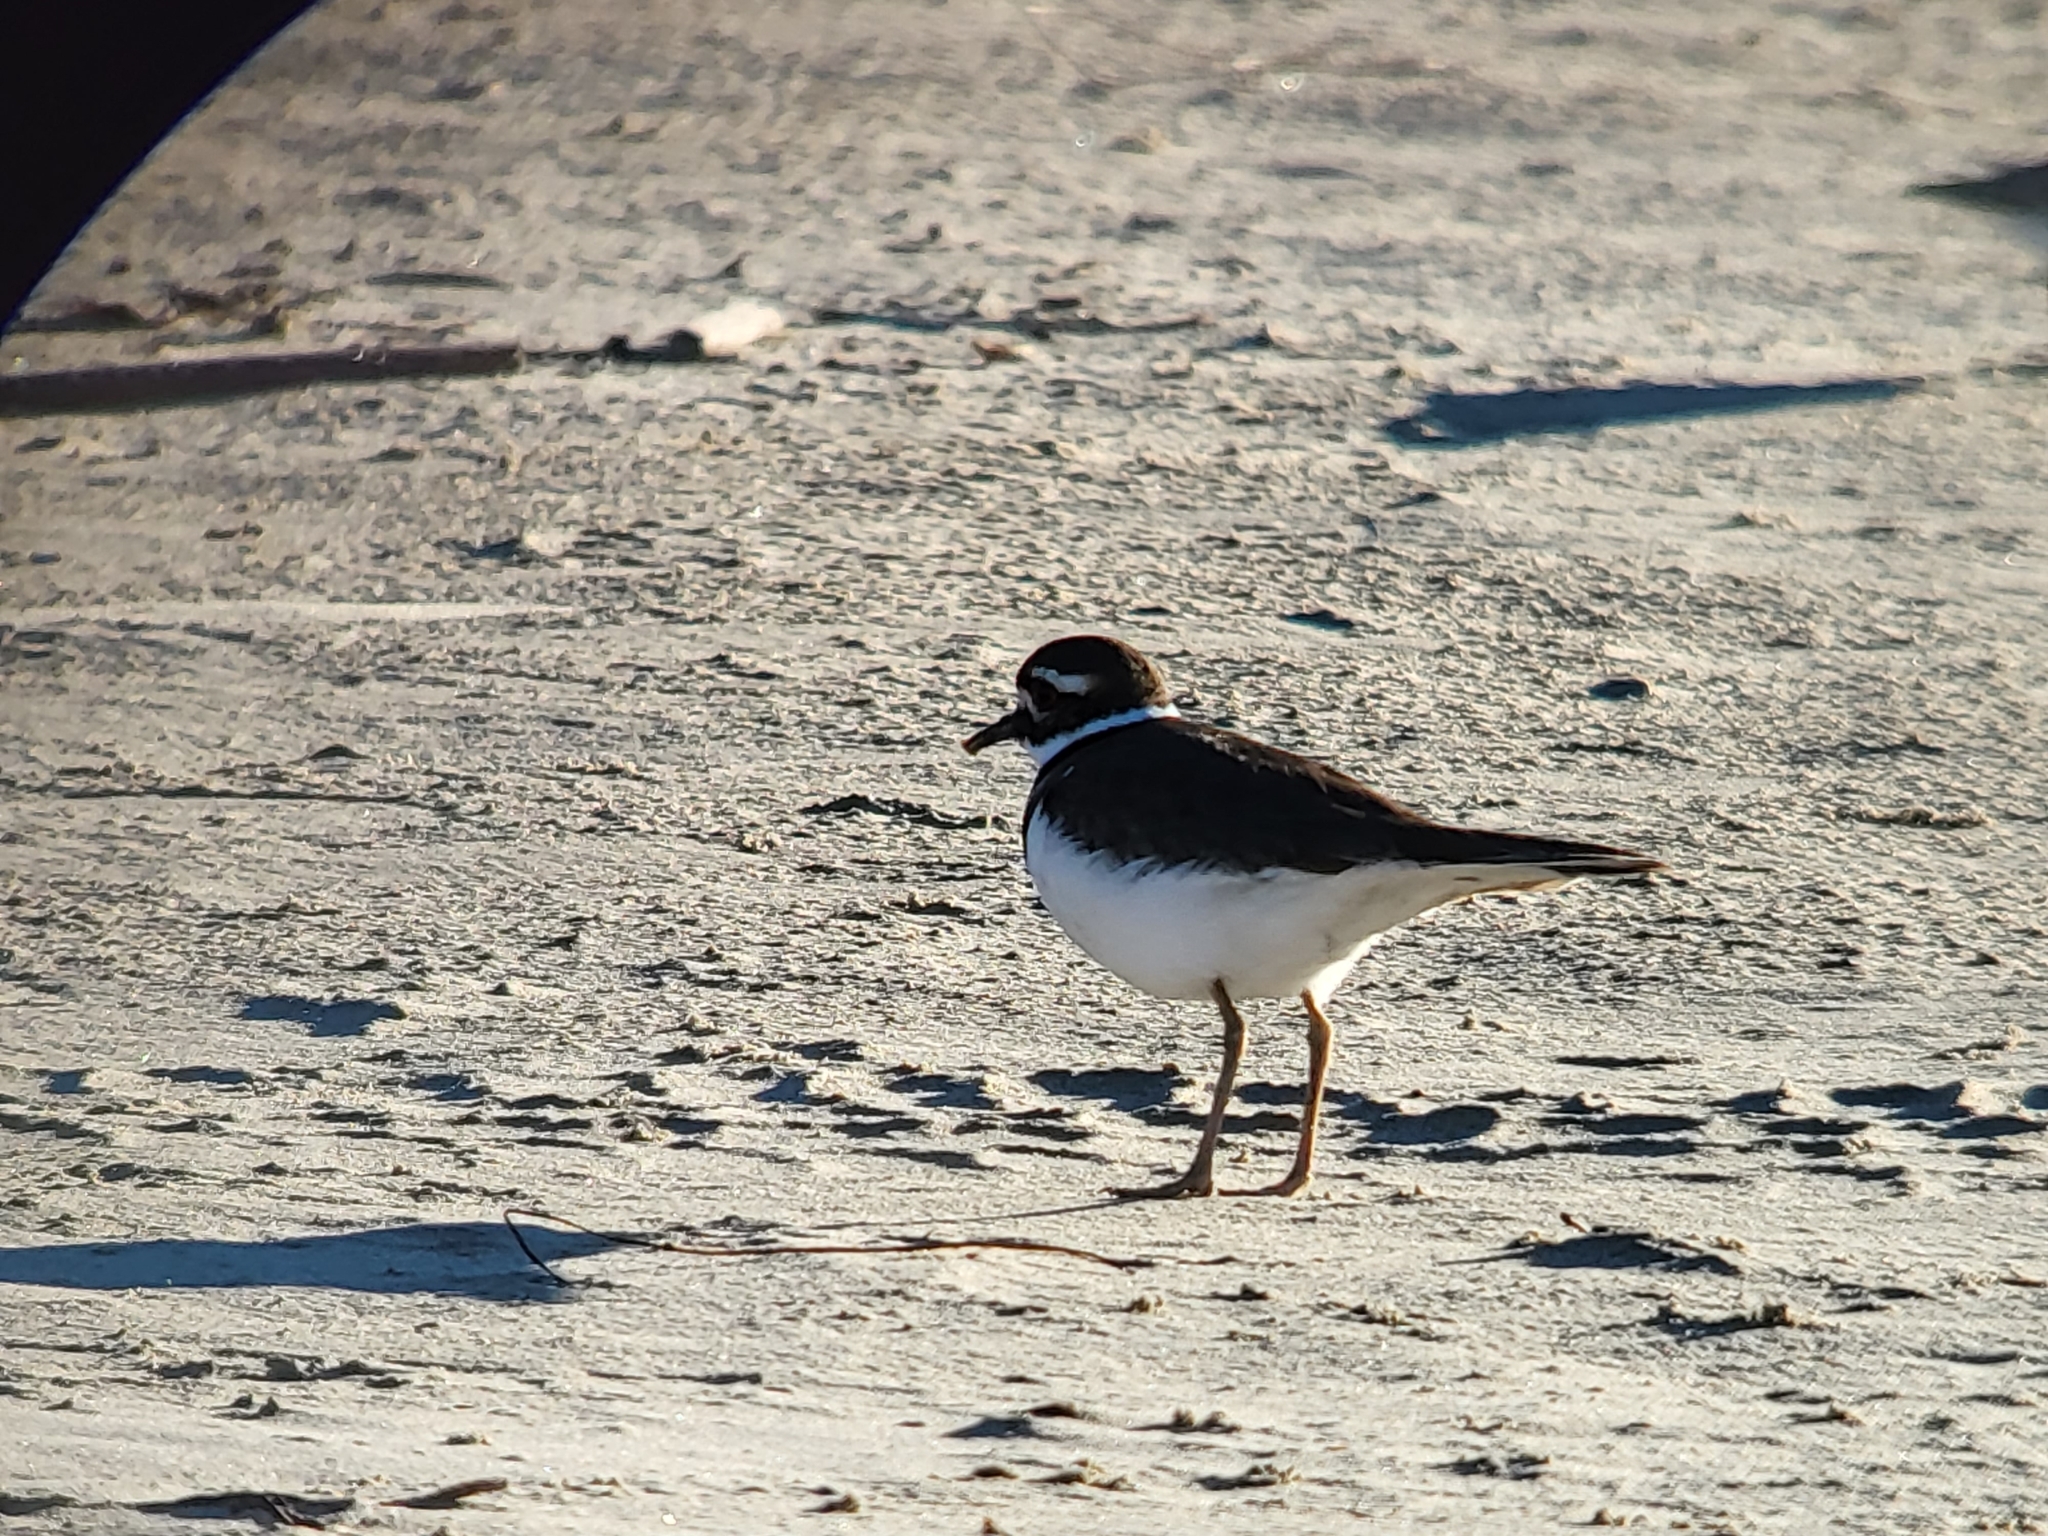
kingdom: Animalia
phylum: Chordata
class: Aves
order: Charadriiformes
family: Charadriidae
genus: Charadrius
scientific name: Charadrius vociferus
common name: Killdeer
